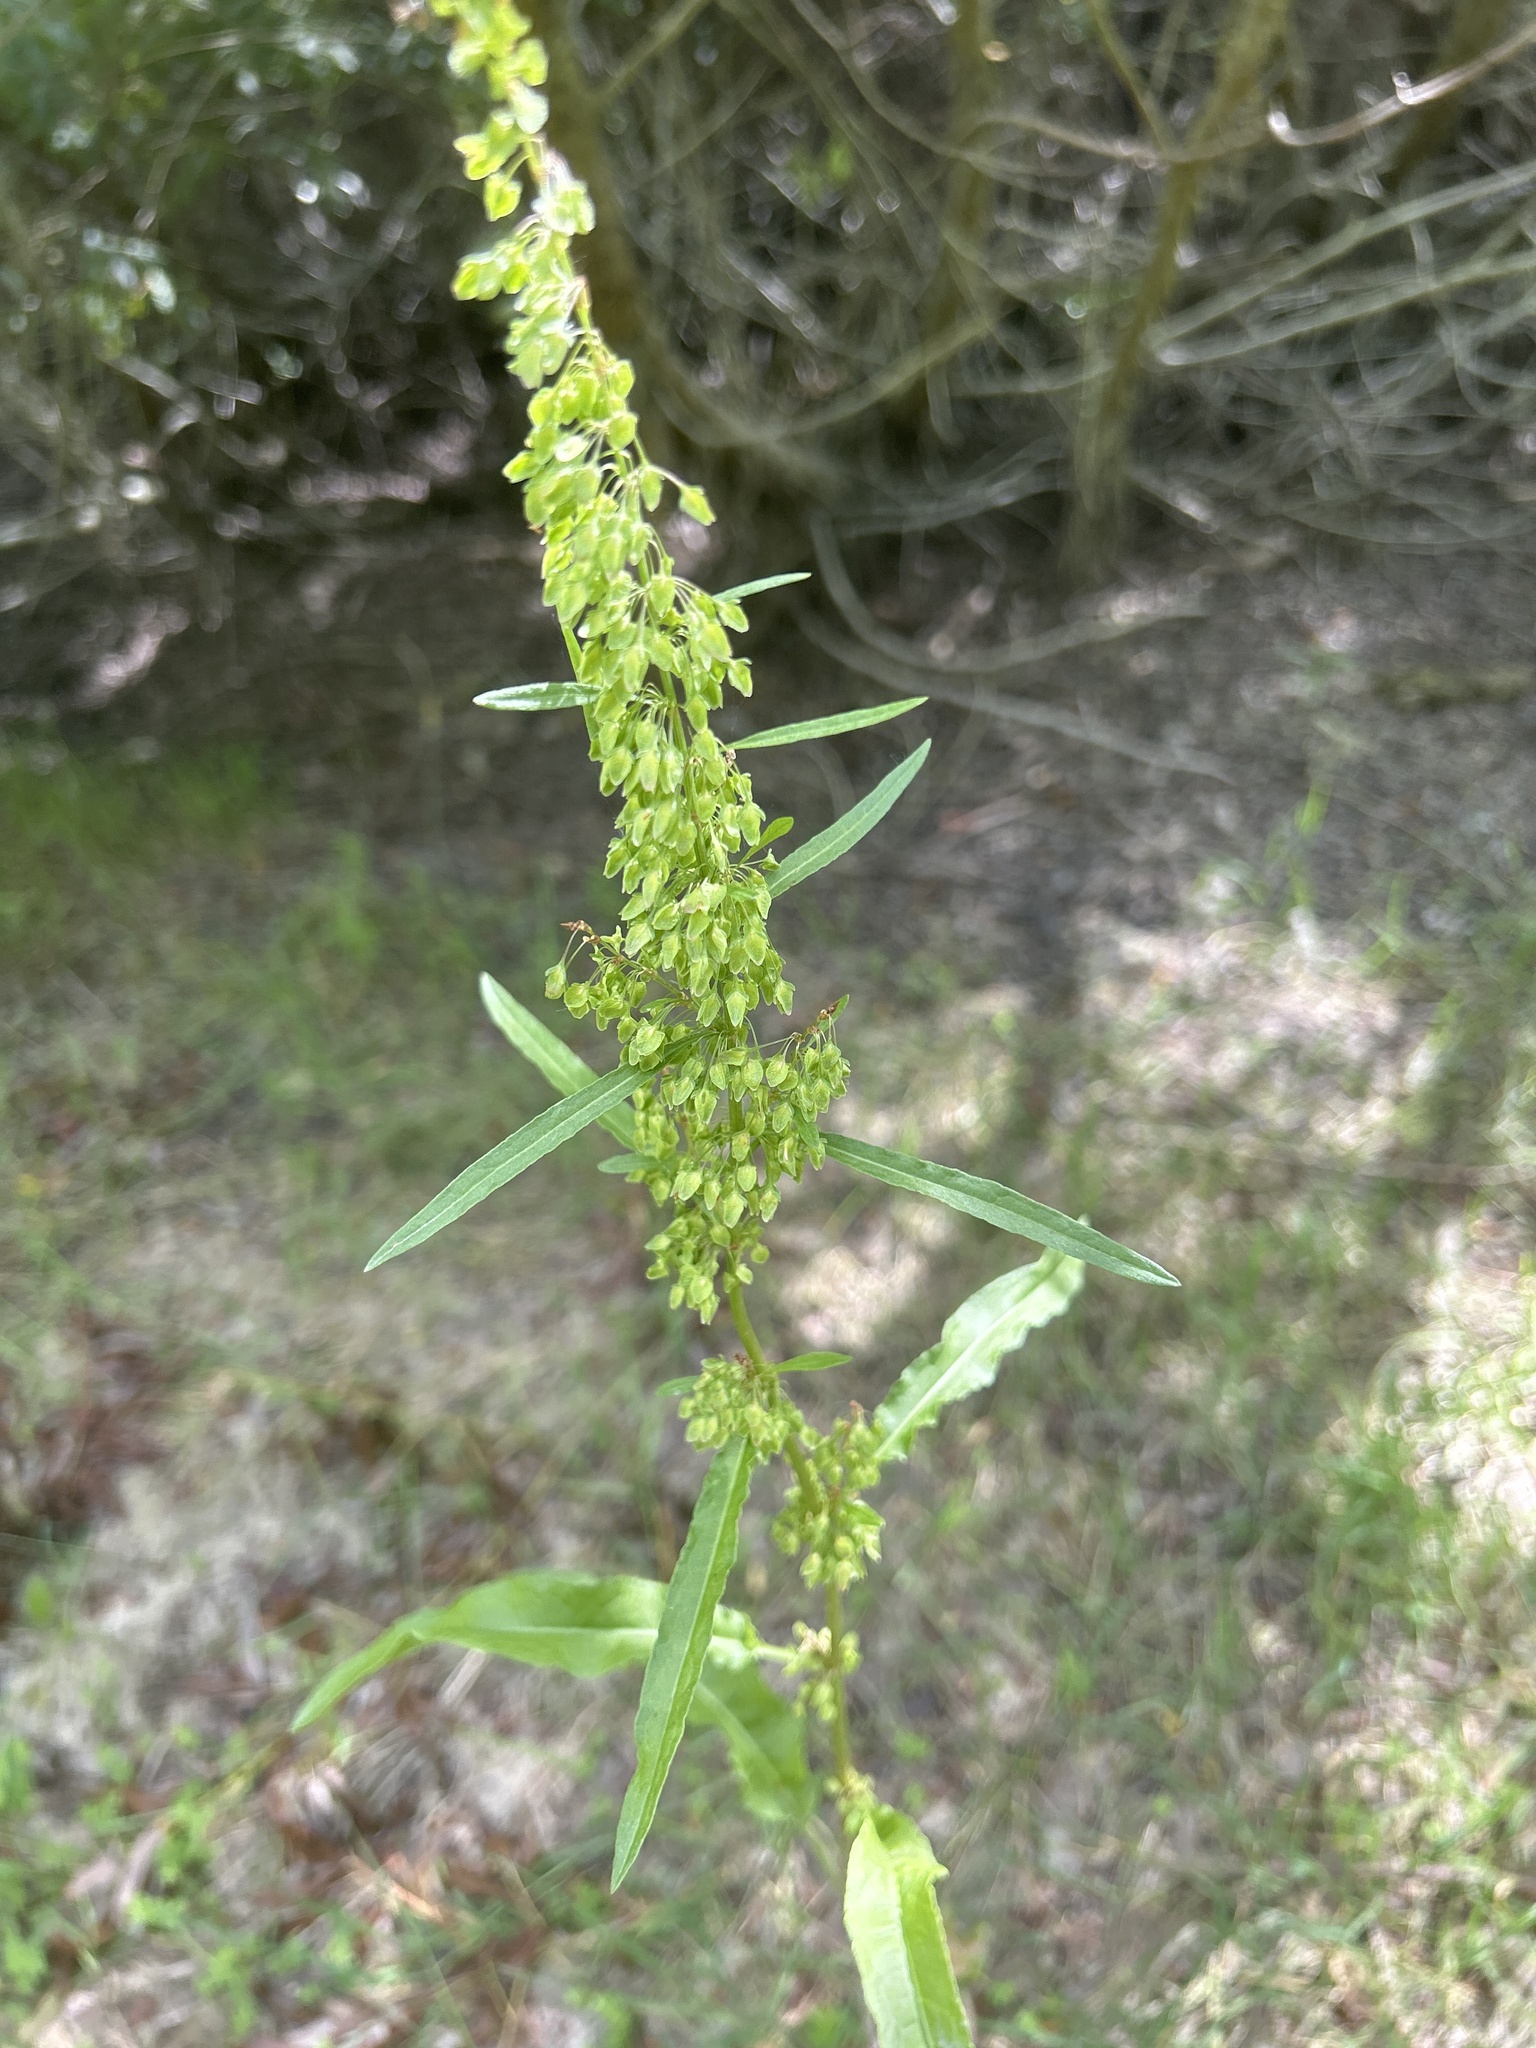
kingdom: Plantae
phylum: Tracheophyta
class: Magnoliopsida
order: Caryophyllales
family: Polygonaceae
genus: Rumex
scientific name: Rumex crispus
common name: Curled dock
